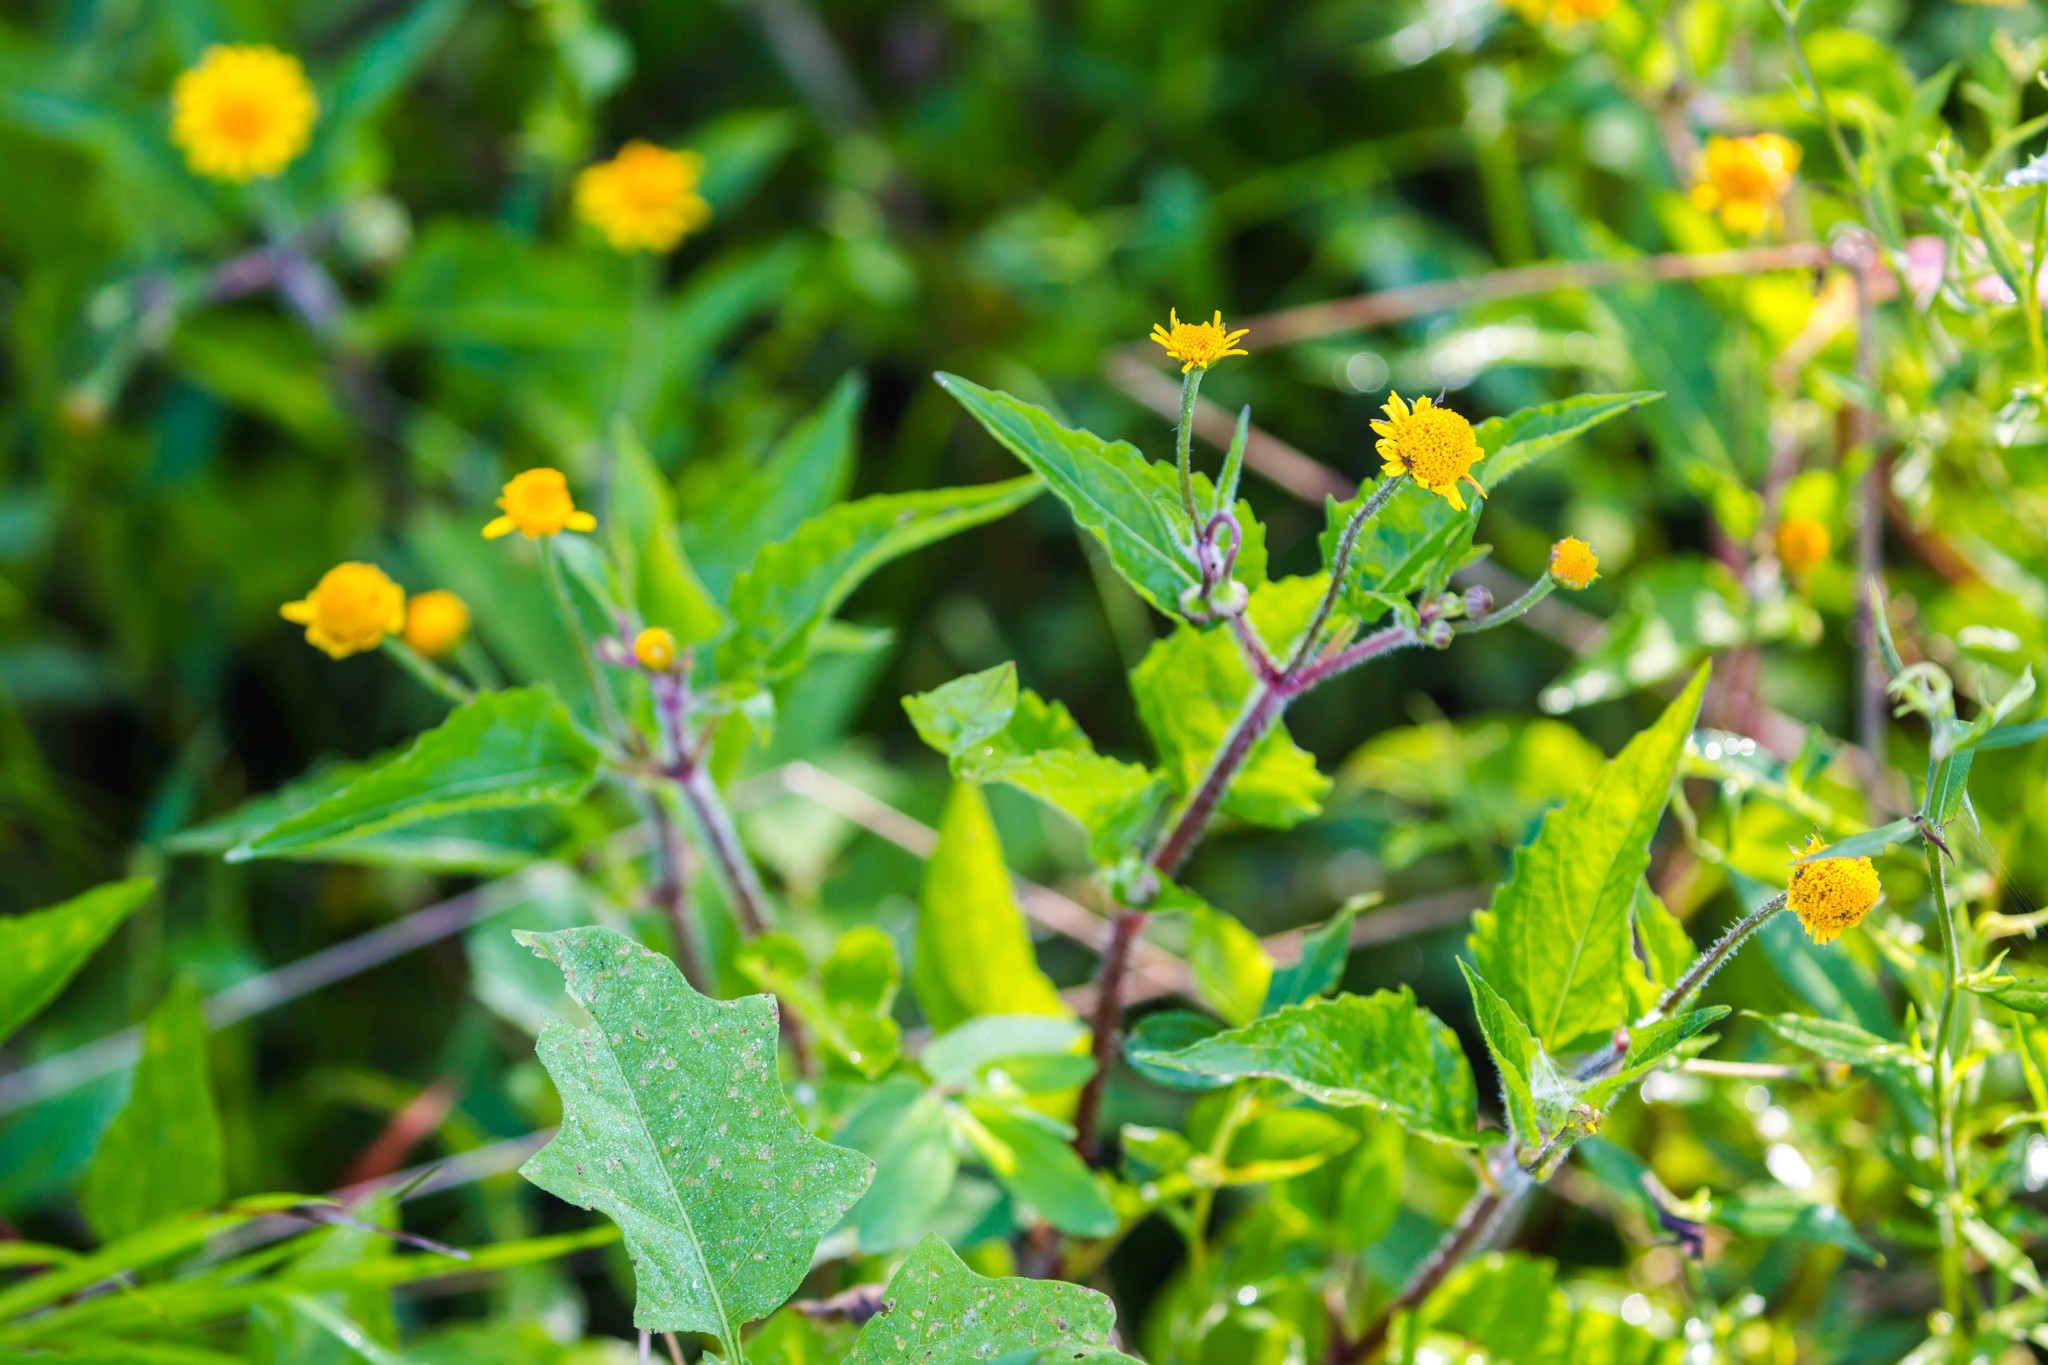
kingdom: Plantae
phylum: Tracheophyta
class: Magnoliopsida
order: Asterales
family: Asteraceae
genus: Acmella
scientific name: Acmella repens
